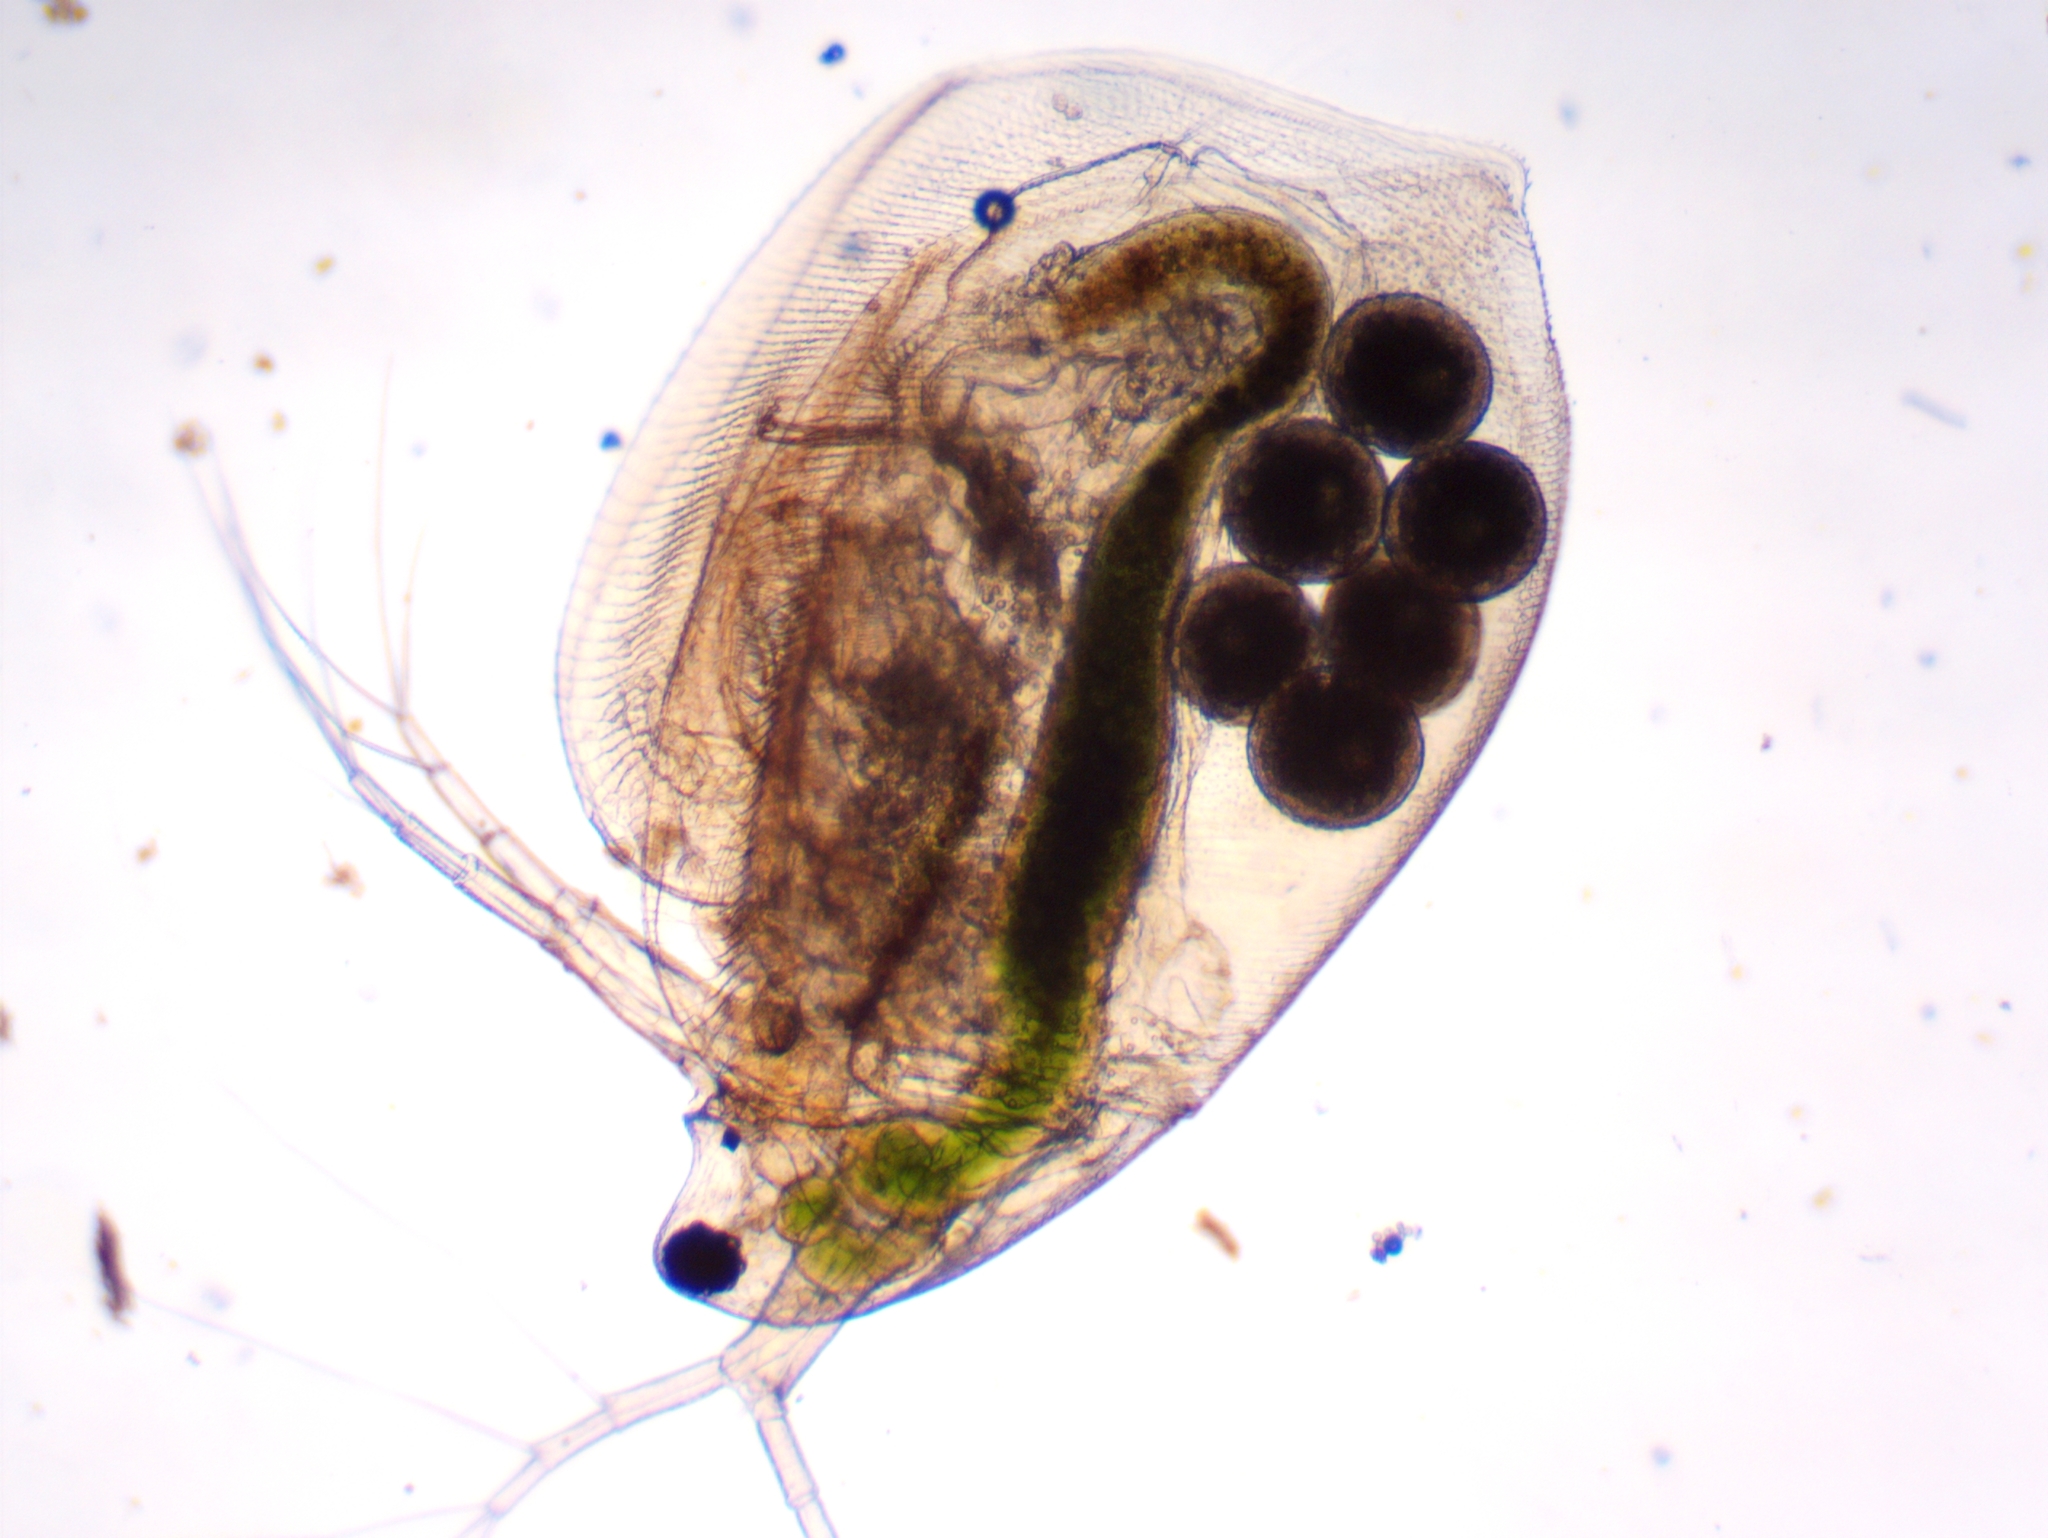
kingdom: Animalia
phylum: Arthropoda
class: Branchiopoda
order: Diplostraca
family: Daphniidae
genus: Simocephalus
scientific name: Simocephalus exspinosus
